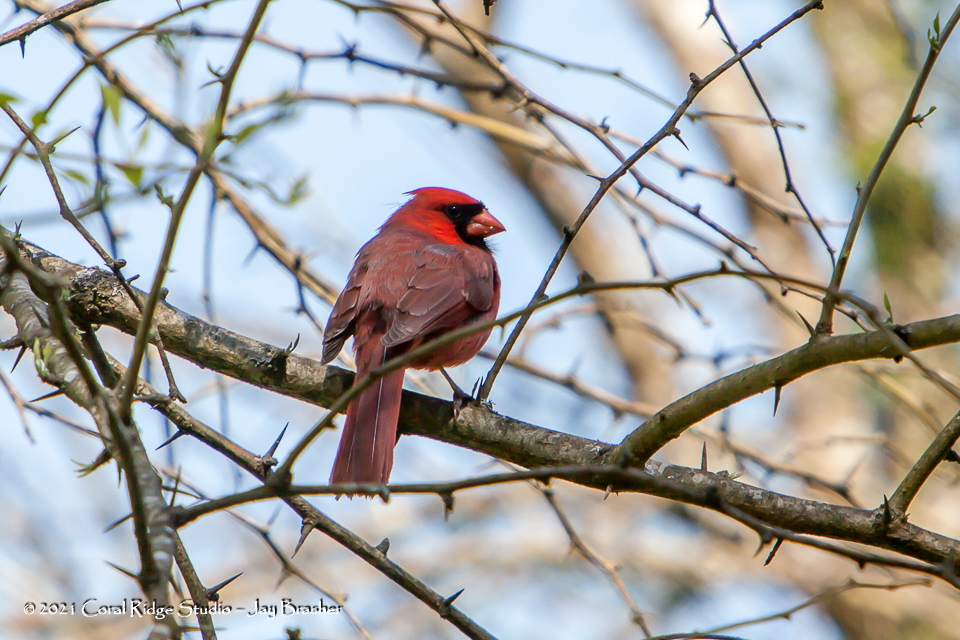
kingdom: Animalia
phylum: Chordata
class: Aves
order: Passeriformes
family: Cardinalidae
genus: Cardinalis
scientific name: Cardinalis cardinalis
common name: Northern cardinal
